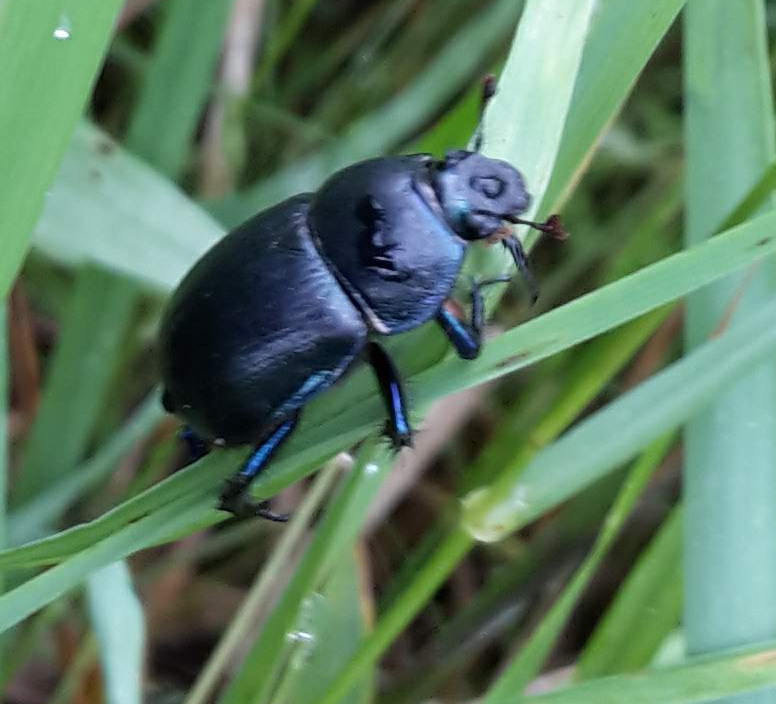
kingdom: Animalia
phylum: Arthropoda
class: Insecta
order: Coleoptera
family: Geotrupidae
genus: Anoplotrupes
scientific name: Anoplotrupes stercorosus
